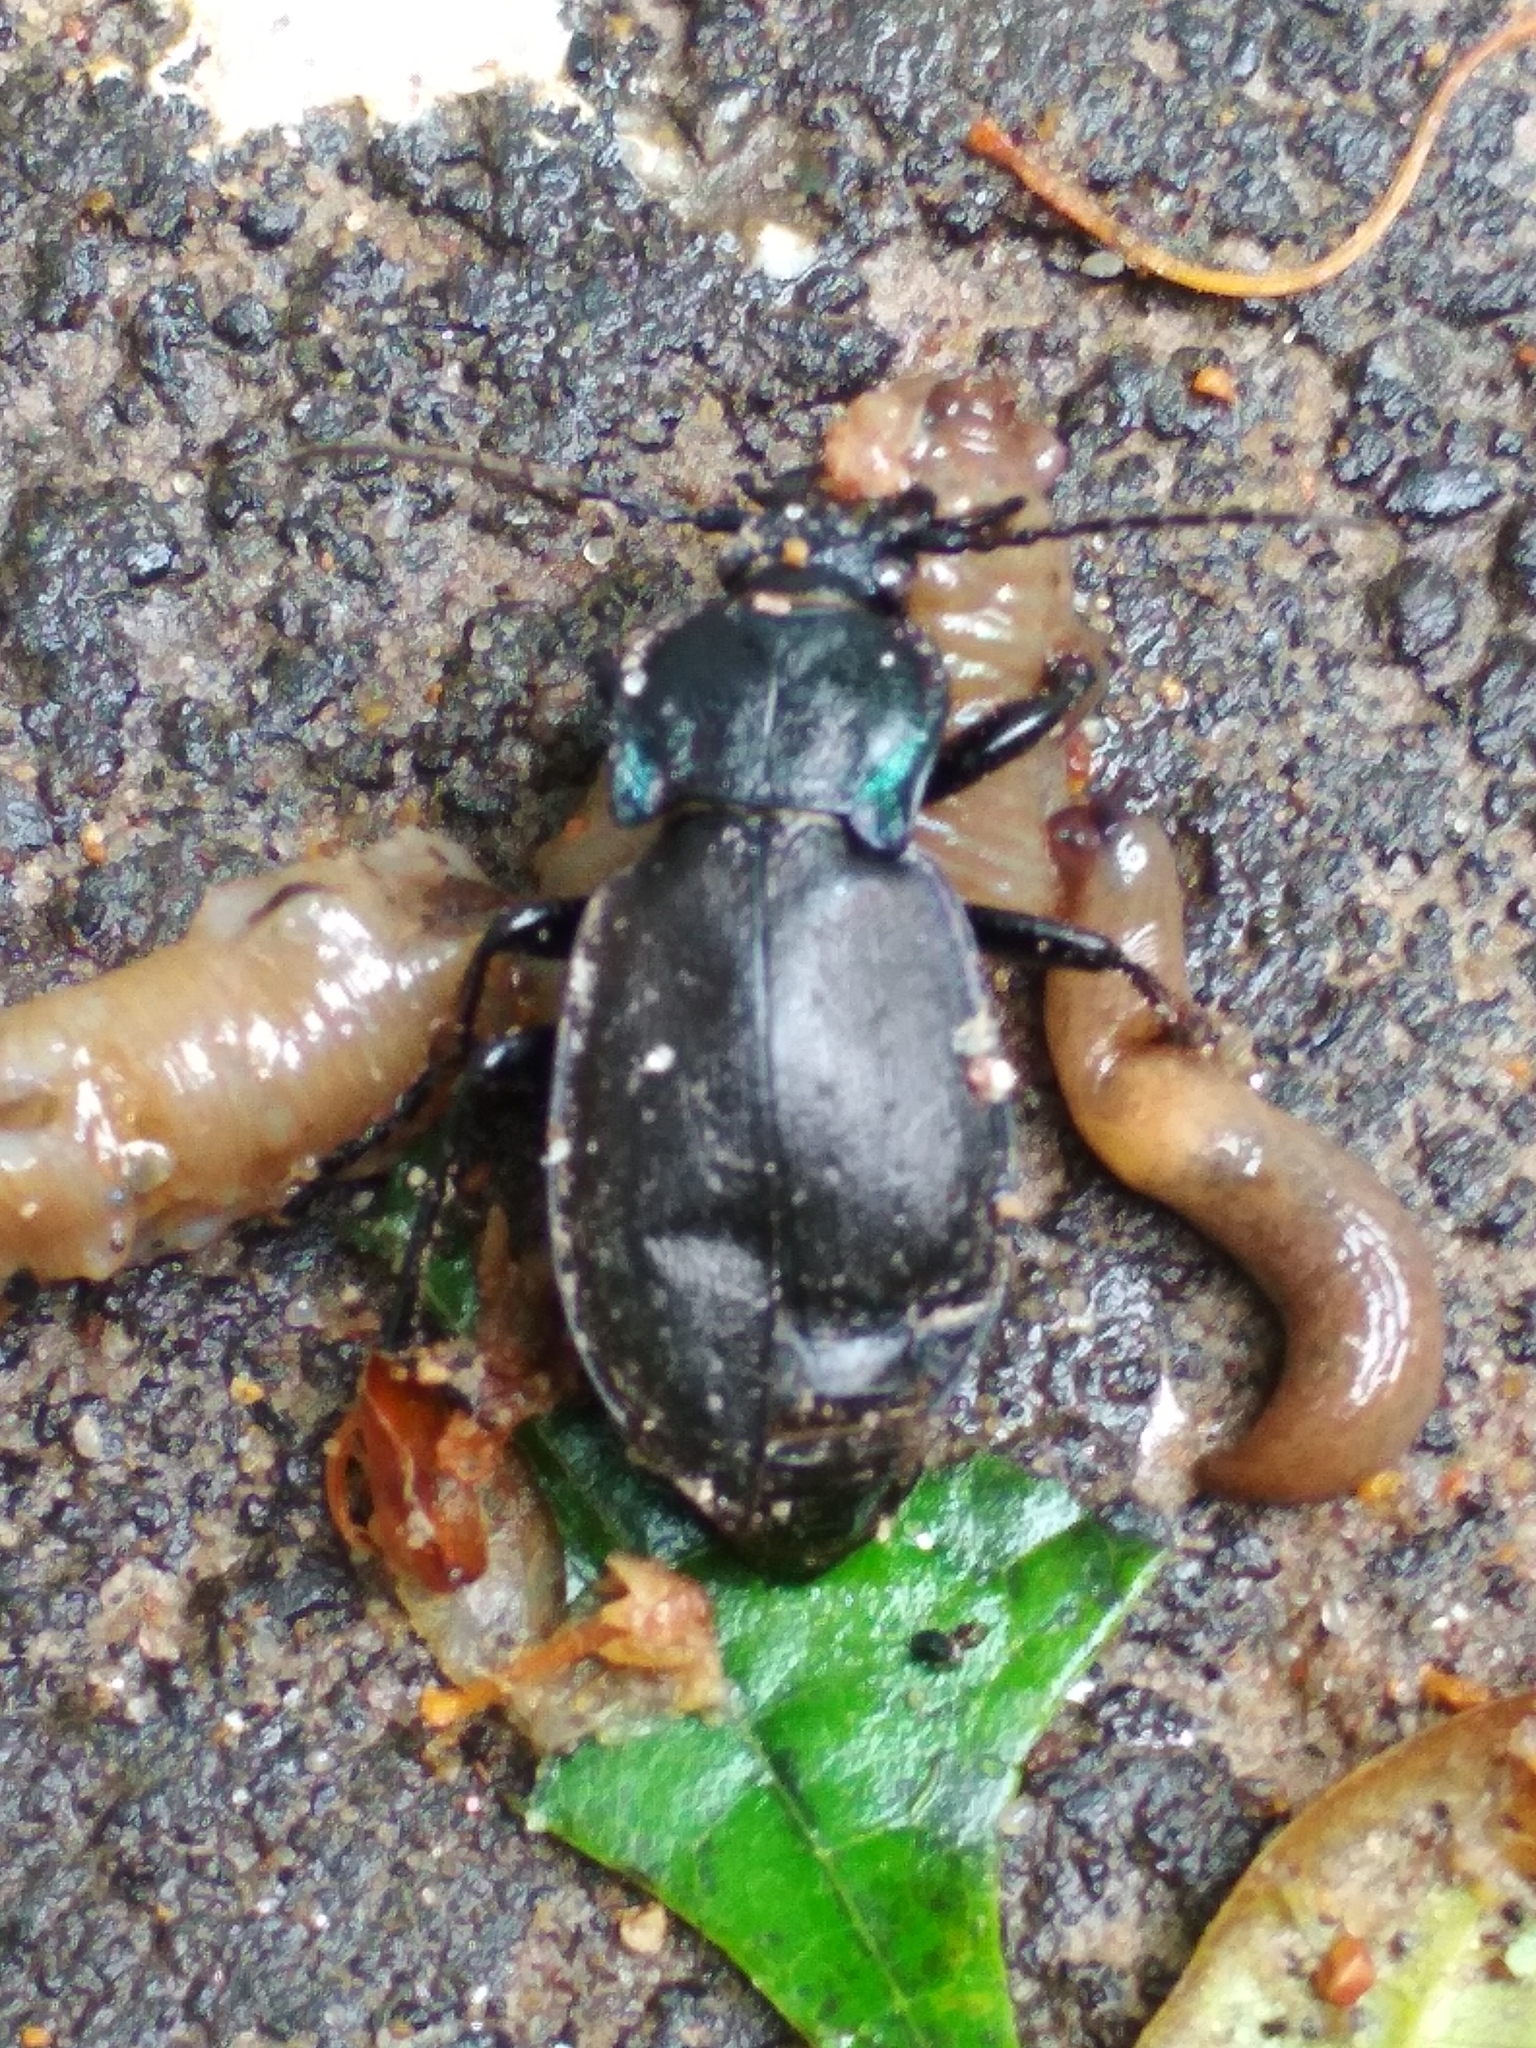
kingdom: Animalia
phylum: Arthropoda
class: Insecta
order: Coleoptera
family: Carabidae
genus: Carabus
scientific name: Carabus nemoralis
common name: European ground beetle
